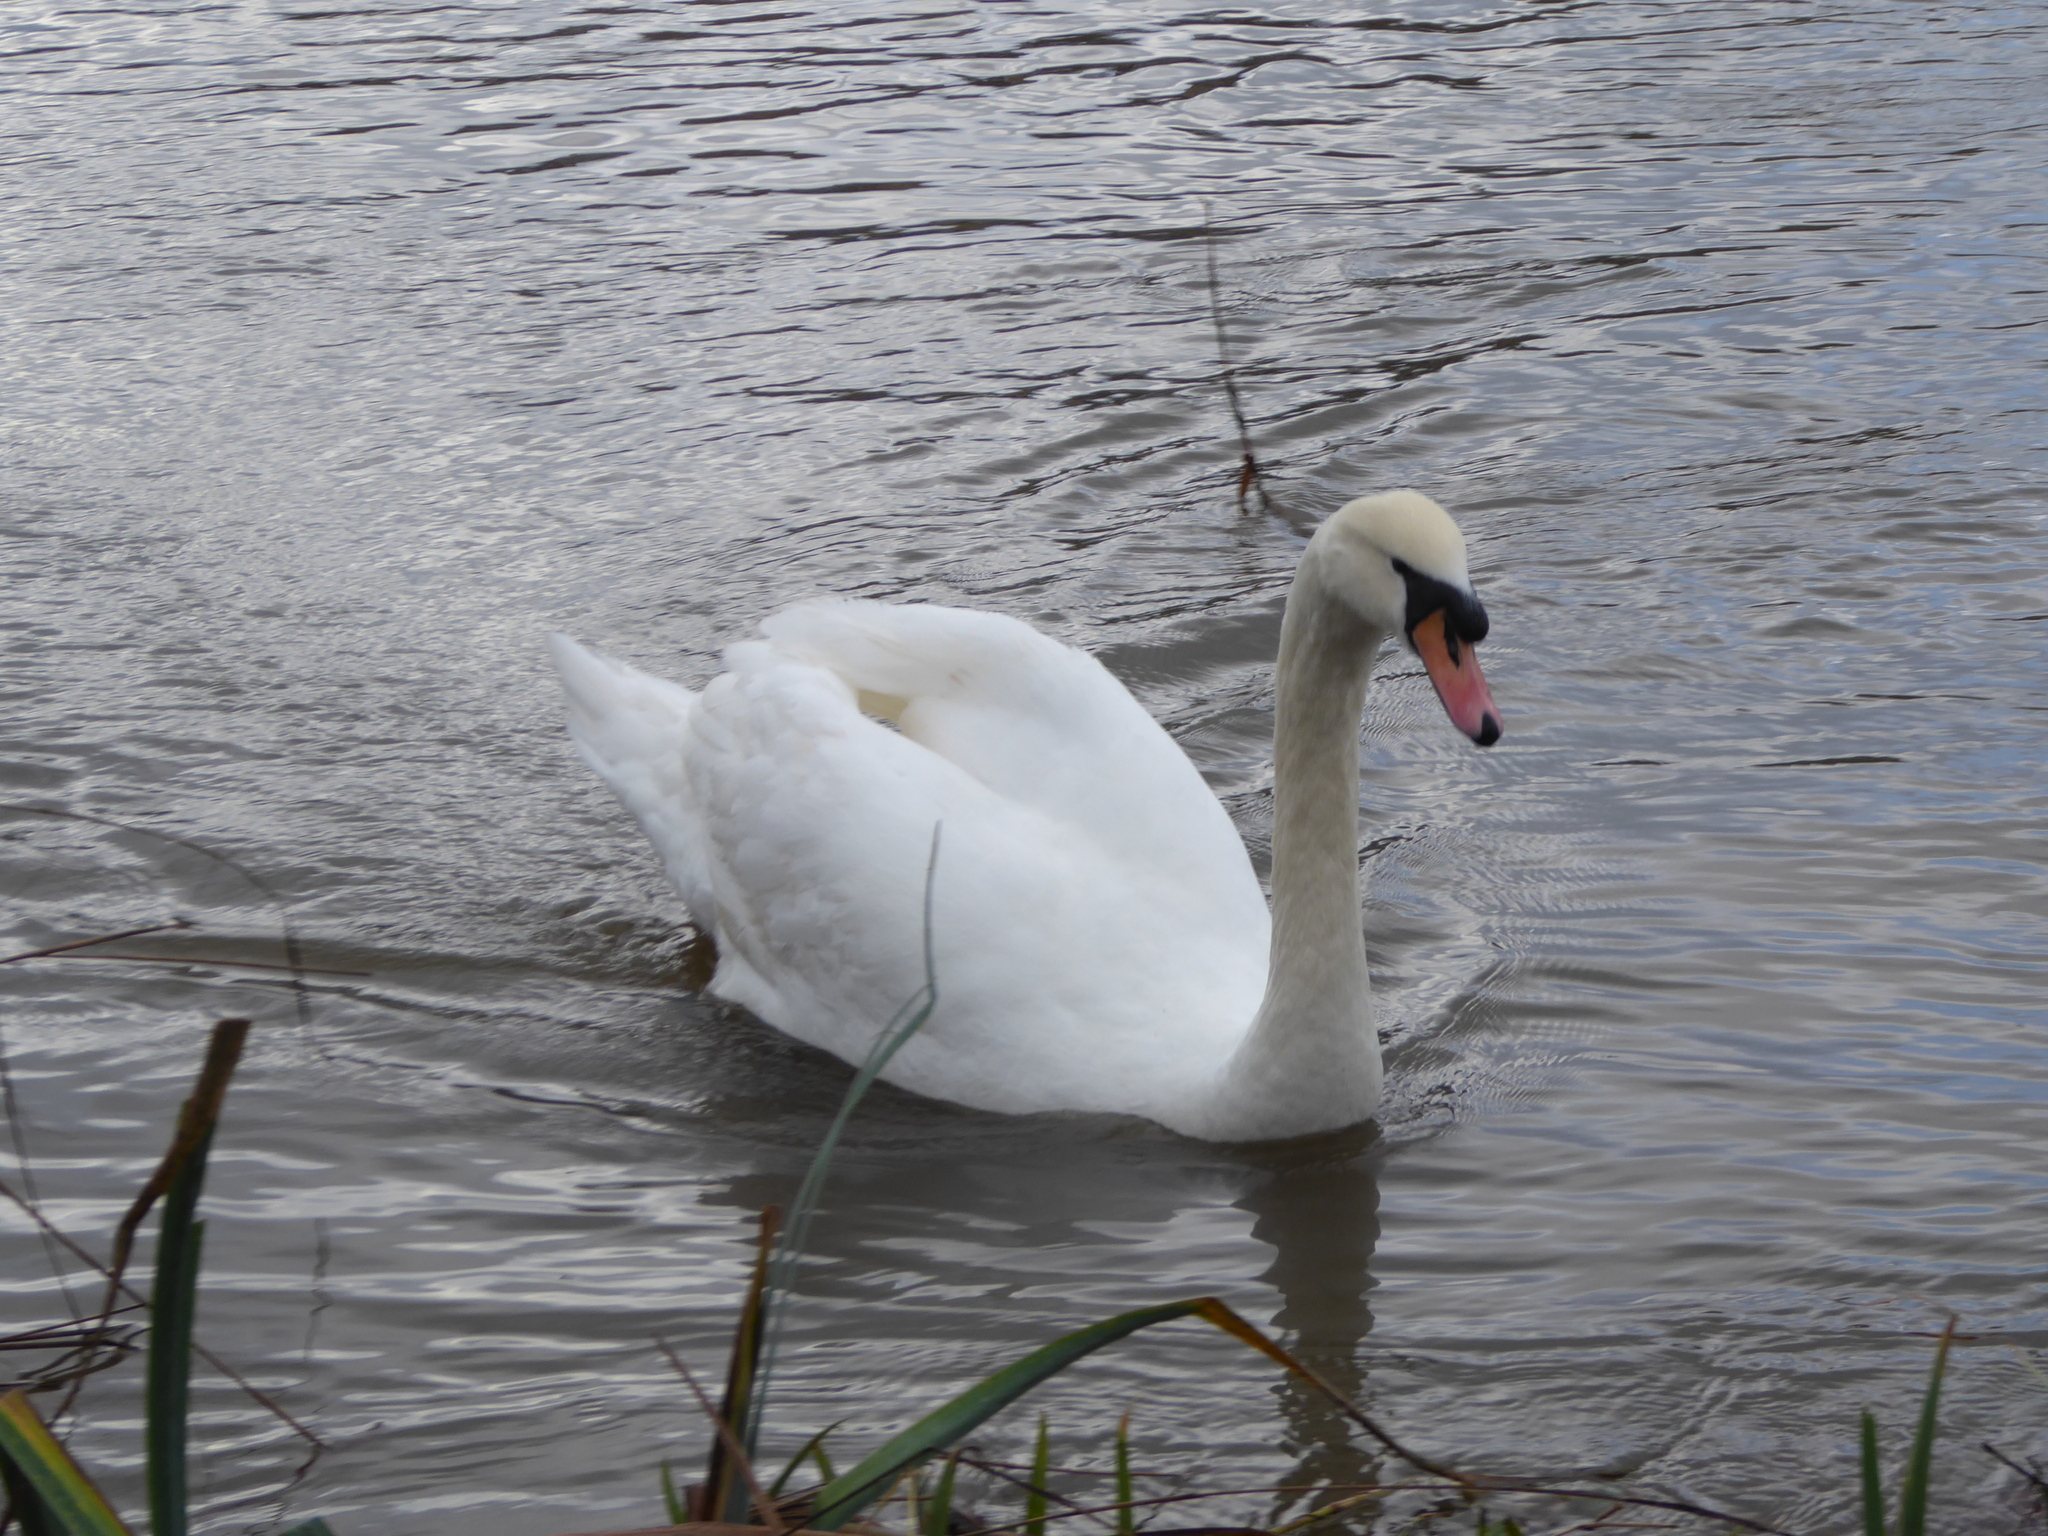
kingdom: Animalia
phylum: Chordata
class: Aves
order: Anseriformes
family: Anatidae
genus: Cygnus
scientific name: Cygnus olor
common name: Mute swan
